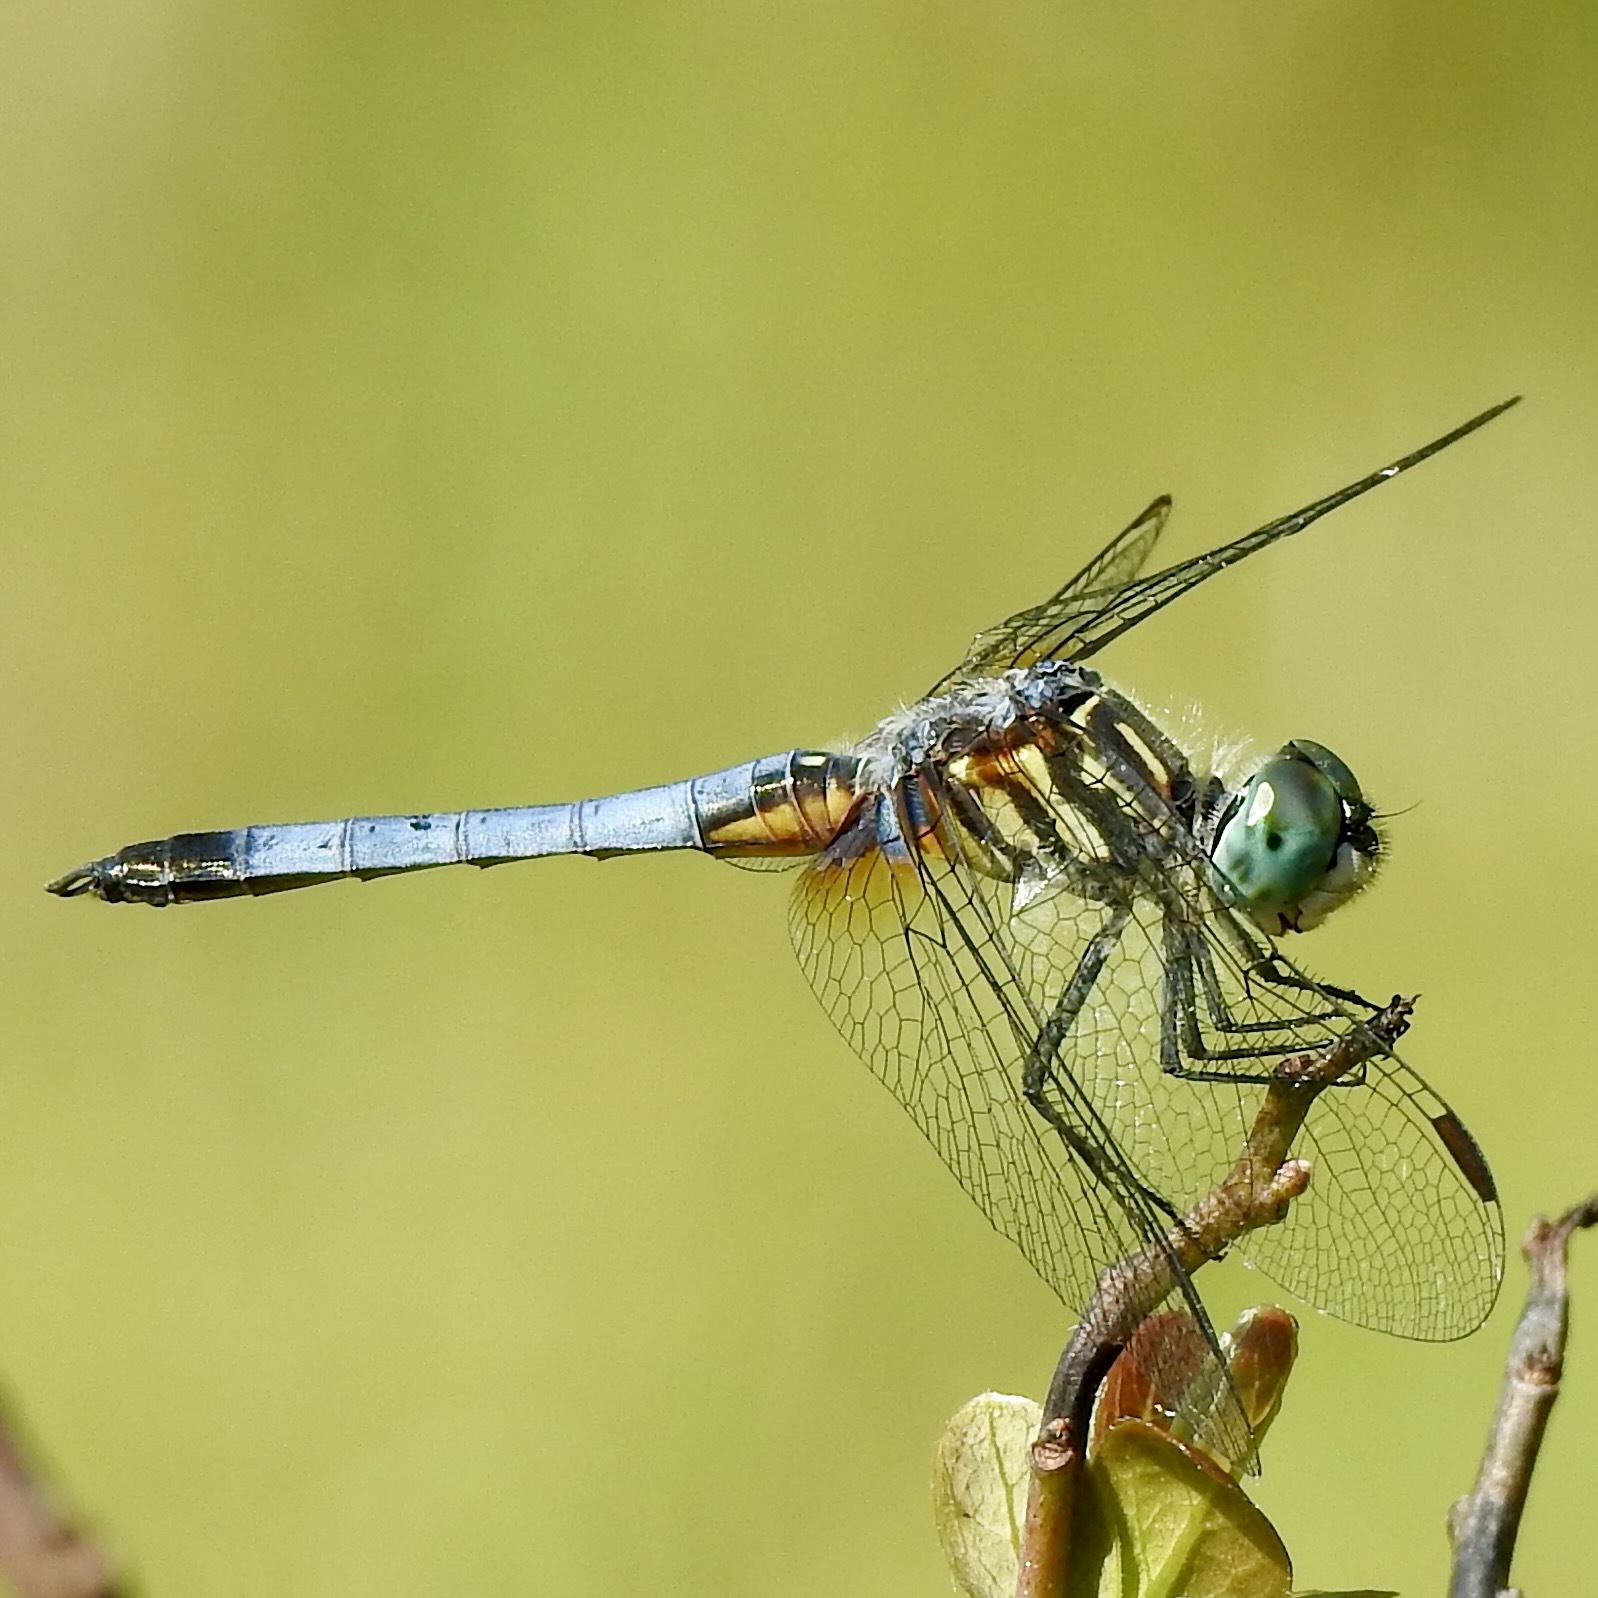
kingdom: Animalia
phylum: Arthropoda
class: Insecta
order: Odonata
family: Libellulidae
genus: Pachydiplax
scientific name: Pachydiplax longipennis
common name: Blue dasher
